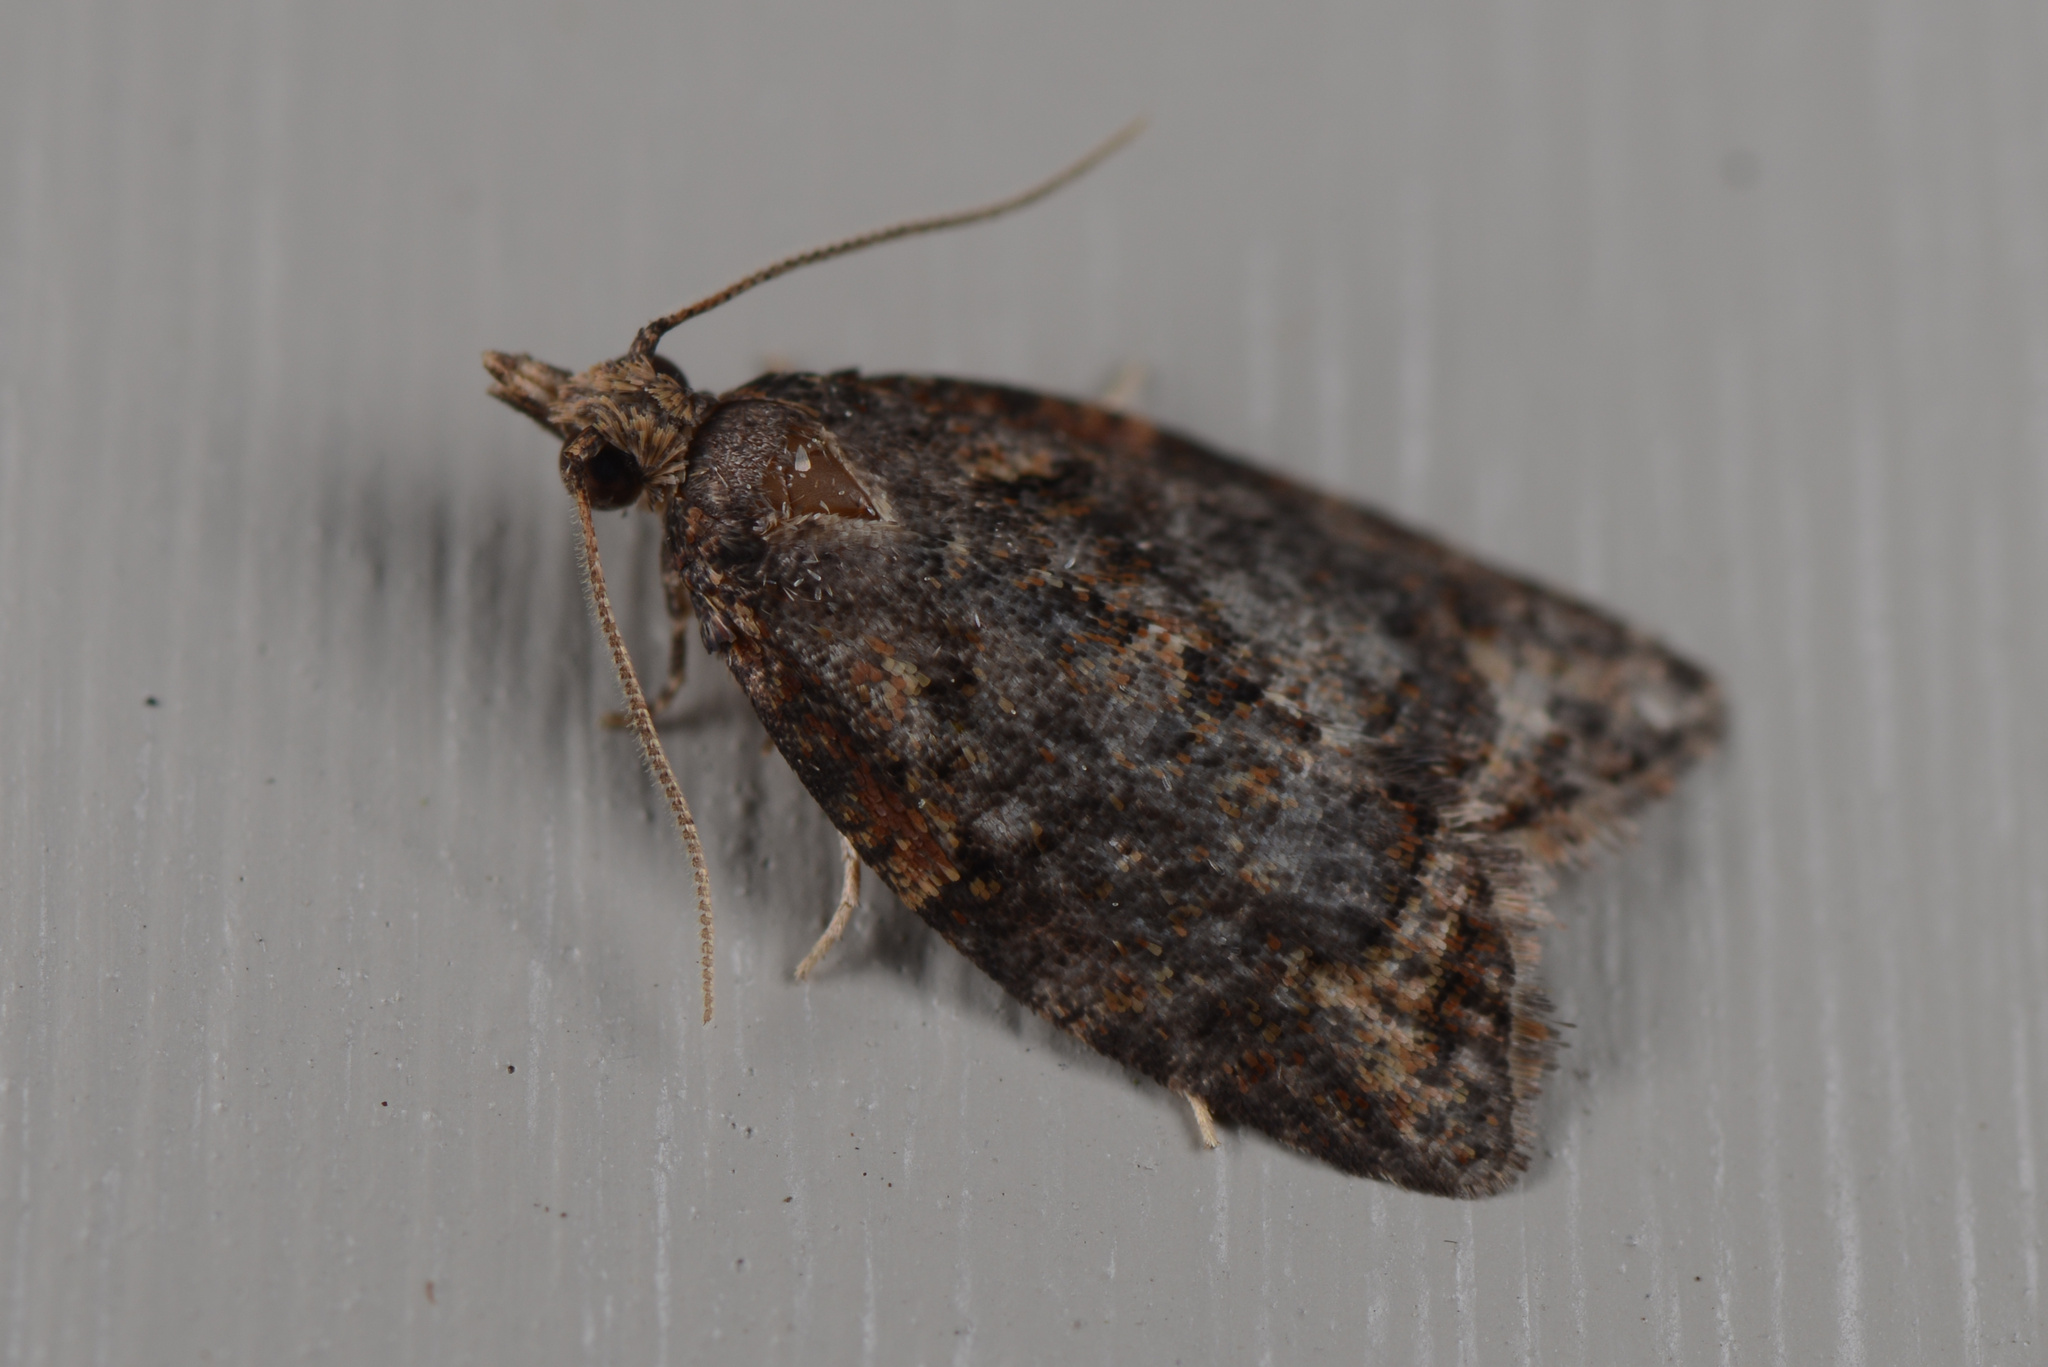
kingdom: Animalia
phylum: Arthropoda
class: Insecta
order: Lepidoptera
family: Tortricidae
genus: Capua
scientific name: Capua intractana
